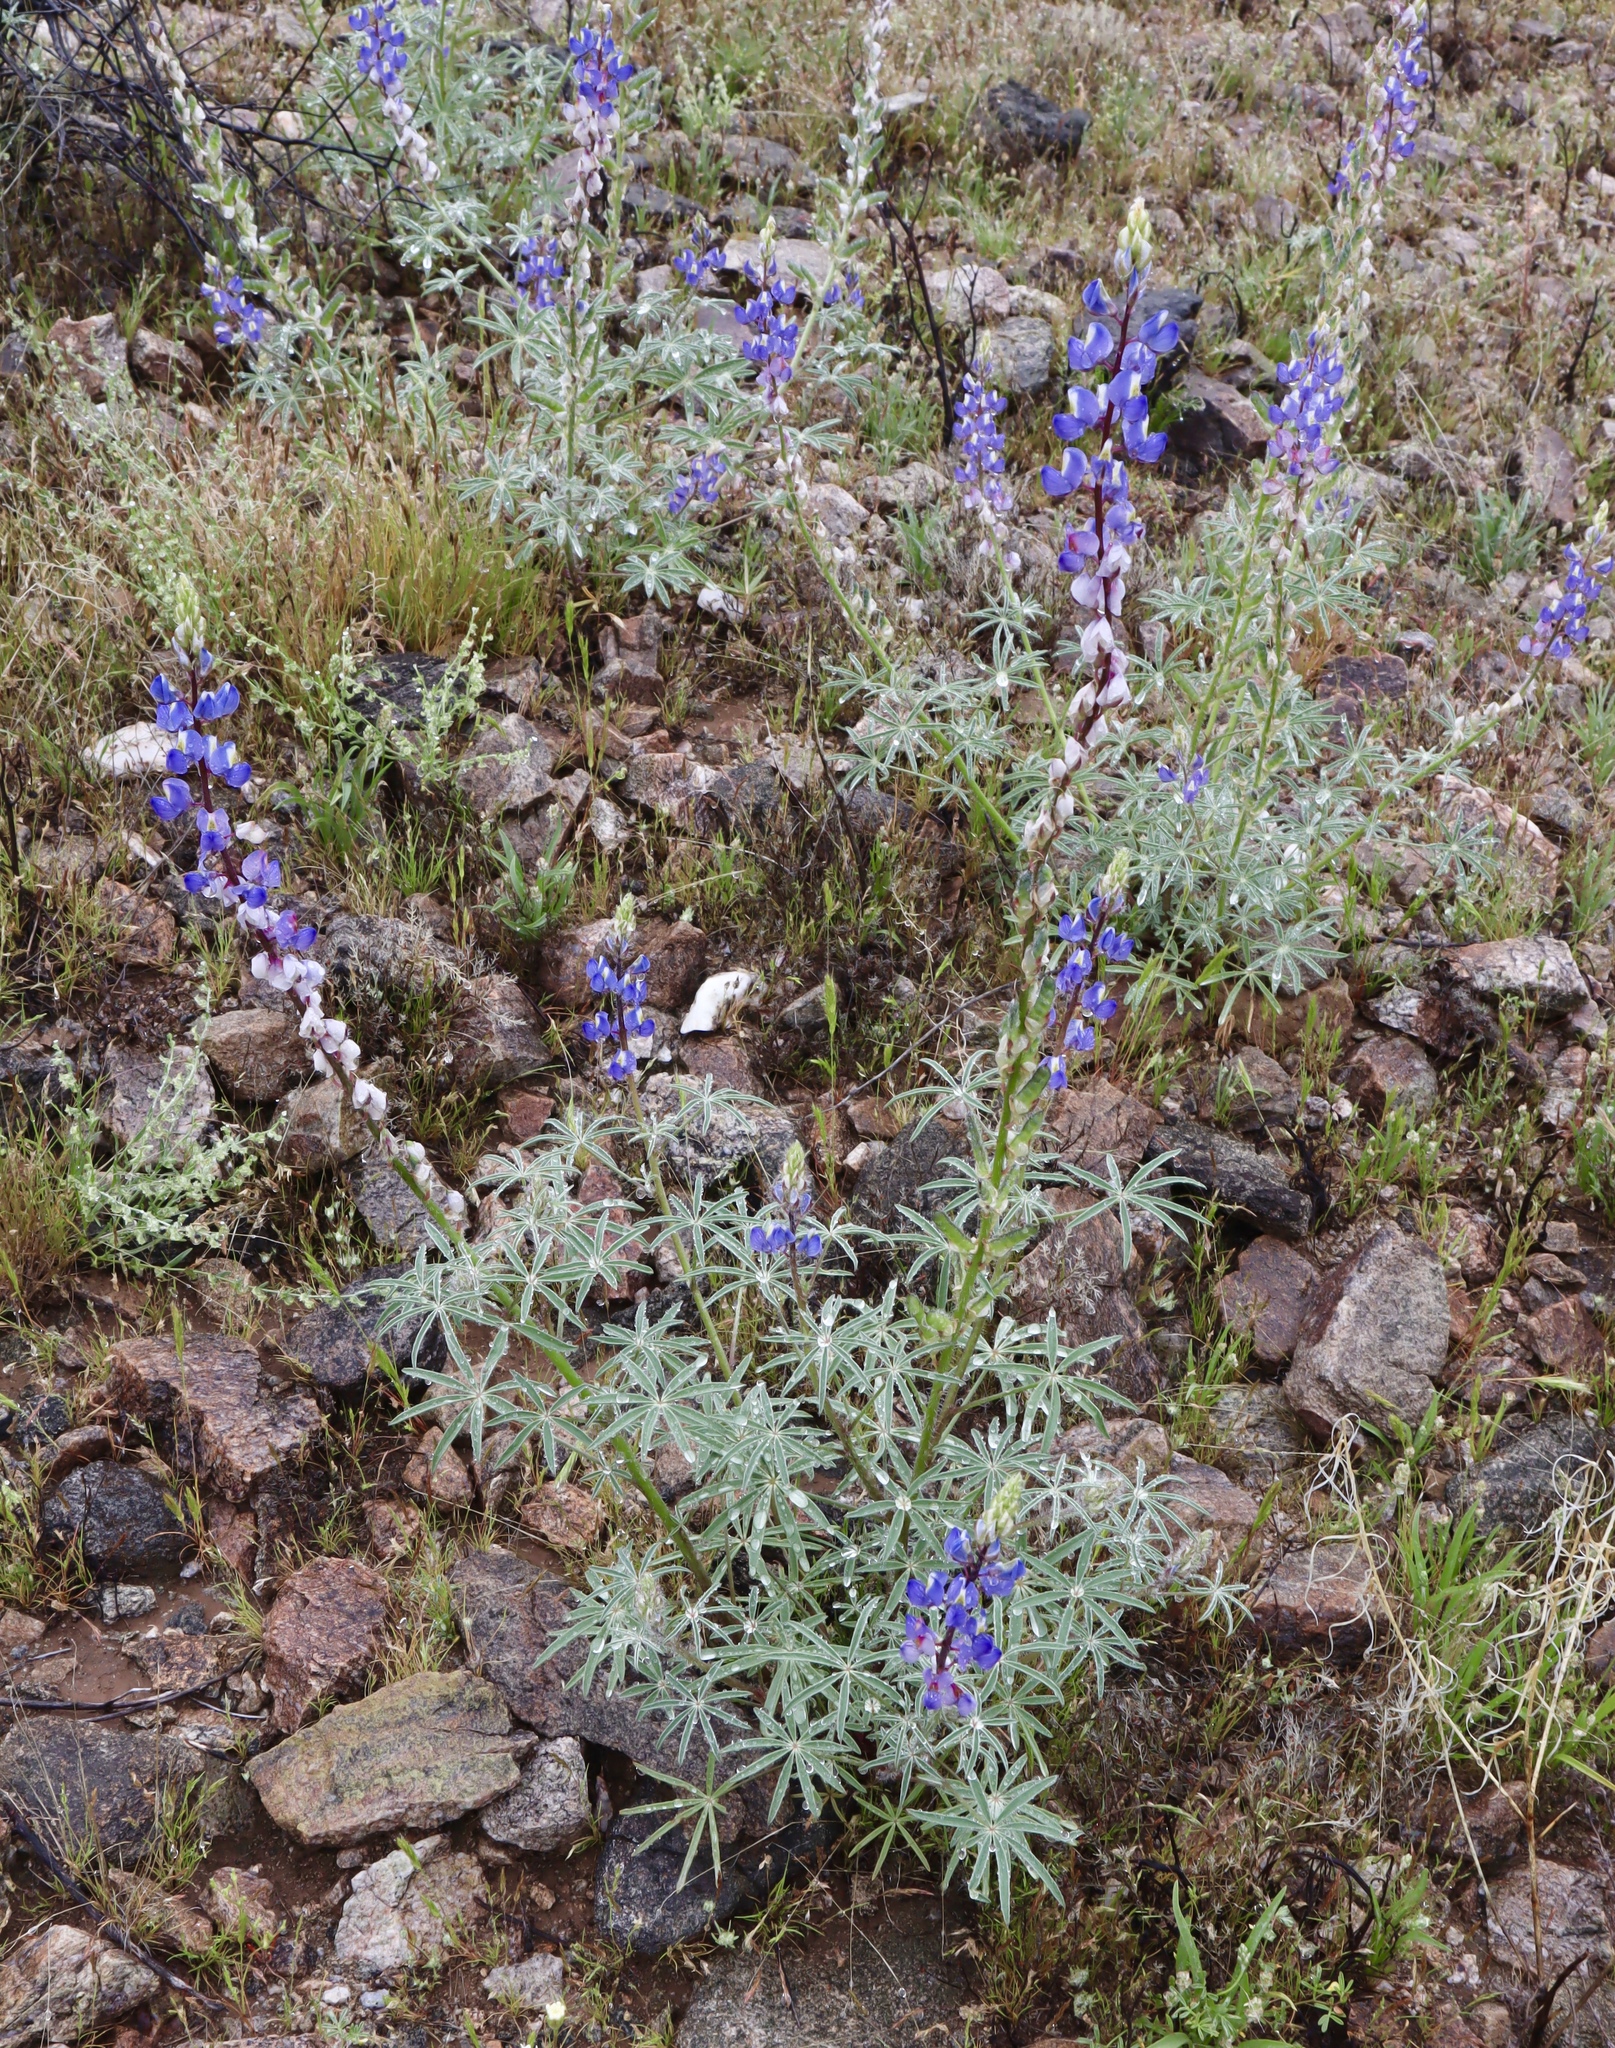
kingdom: Plantae
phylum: Tracheophyta
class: Magnoliopsida
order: Fabales
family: Fabaceae
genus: Lupinus
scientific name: Lupinus sparsiflorus
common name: Coulter's lupine
